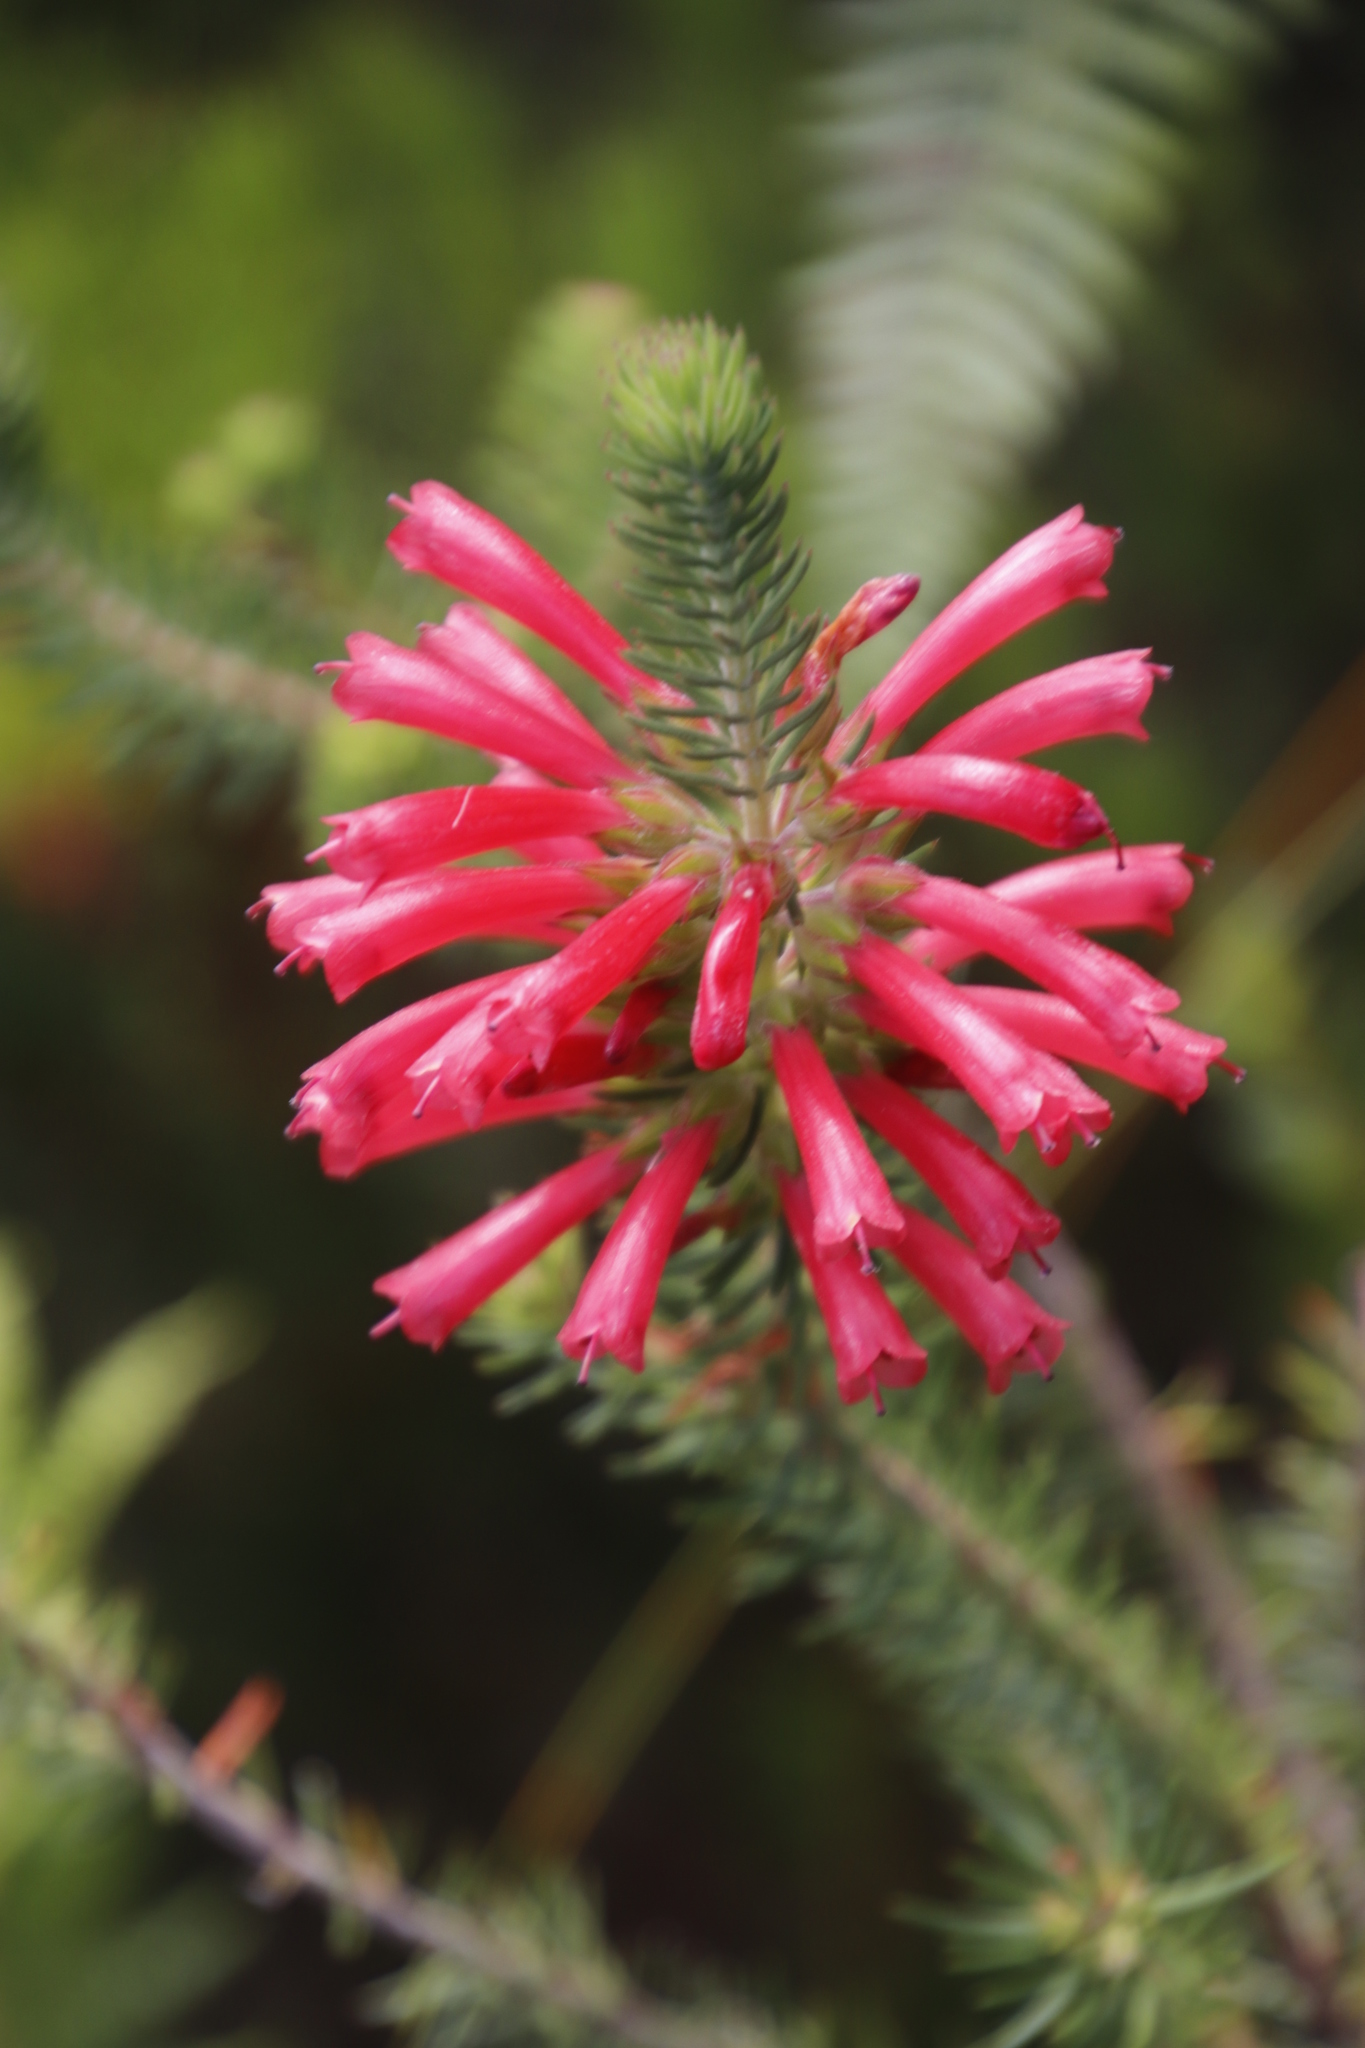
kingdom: Plantae
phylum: Tracheophyta
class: Magnoliopsida
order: Ericales
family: Ericaceae
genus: Erica
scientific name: Erica abietina
